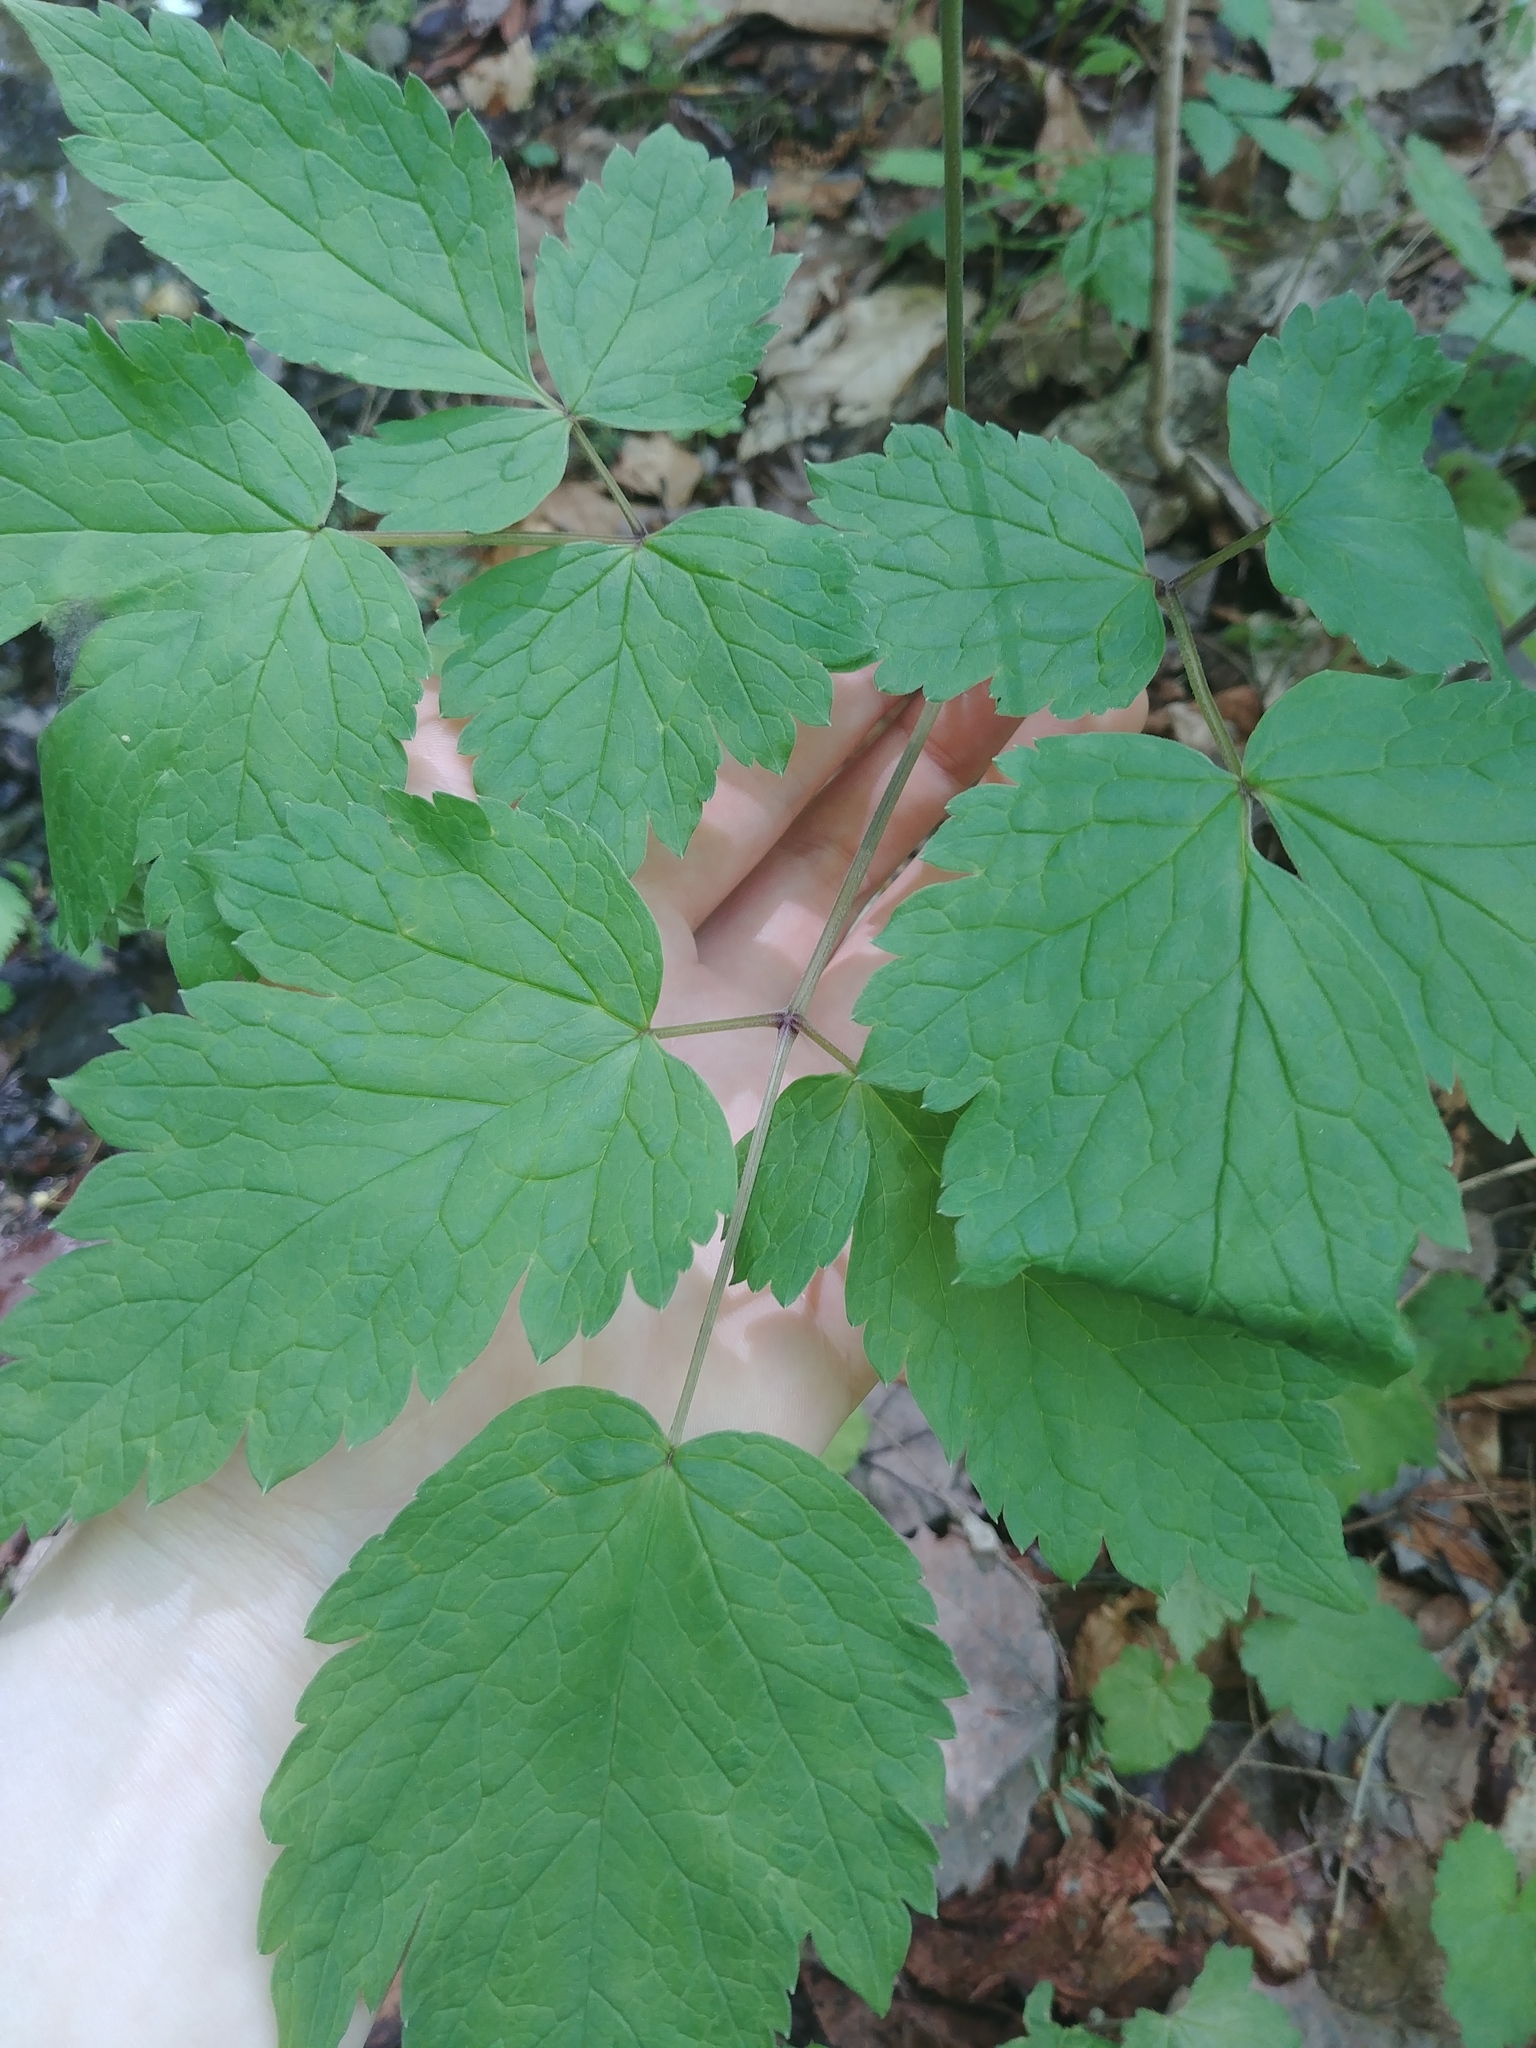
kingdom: Plantae
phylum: Tracheophyta
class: Magnoliopsida
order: Ranunculales
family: Ranunculaceae
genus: Actaea
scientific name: Actaea rubra
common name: Red baneberry
